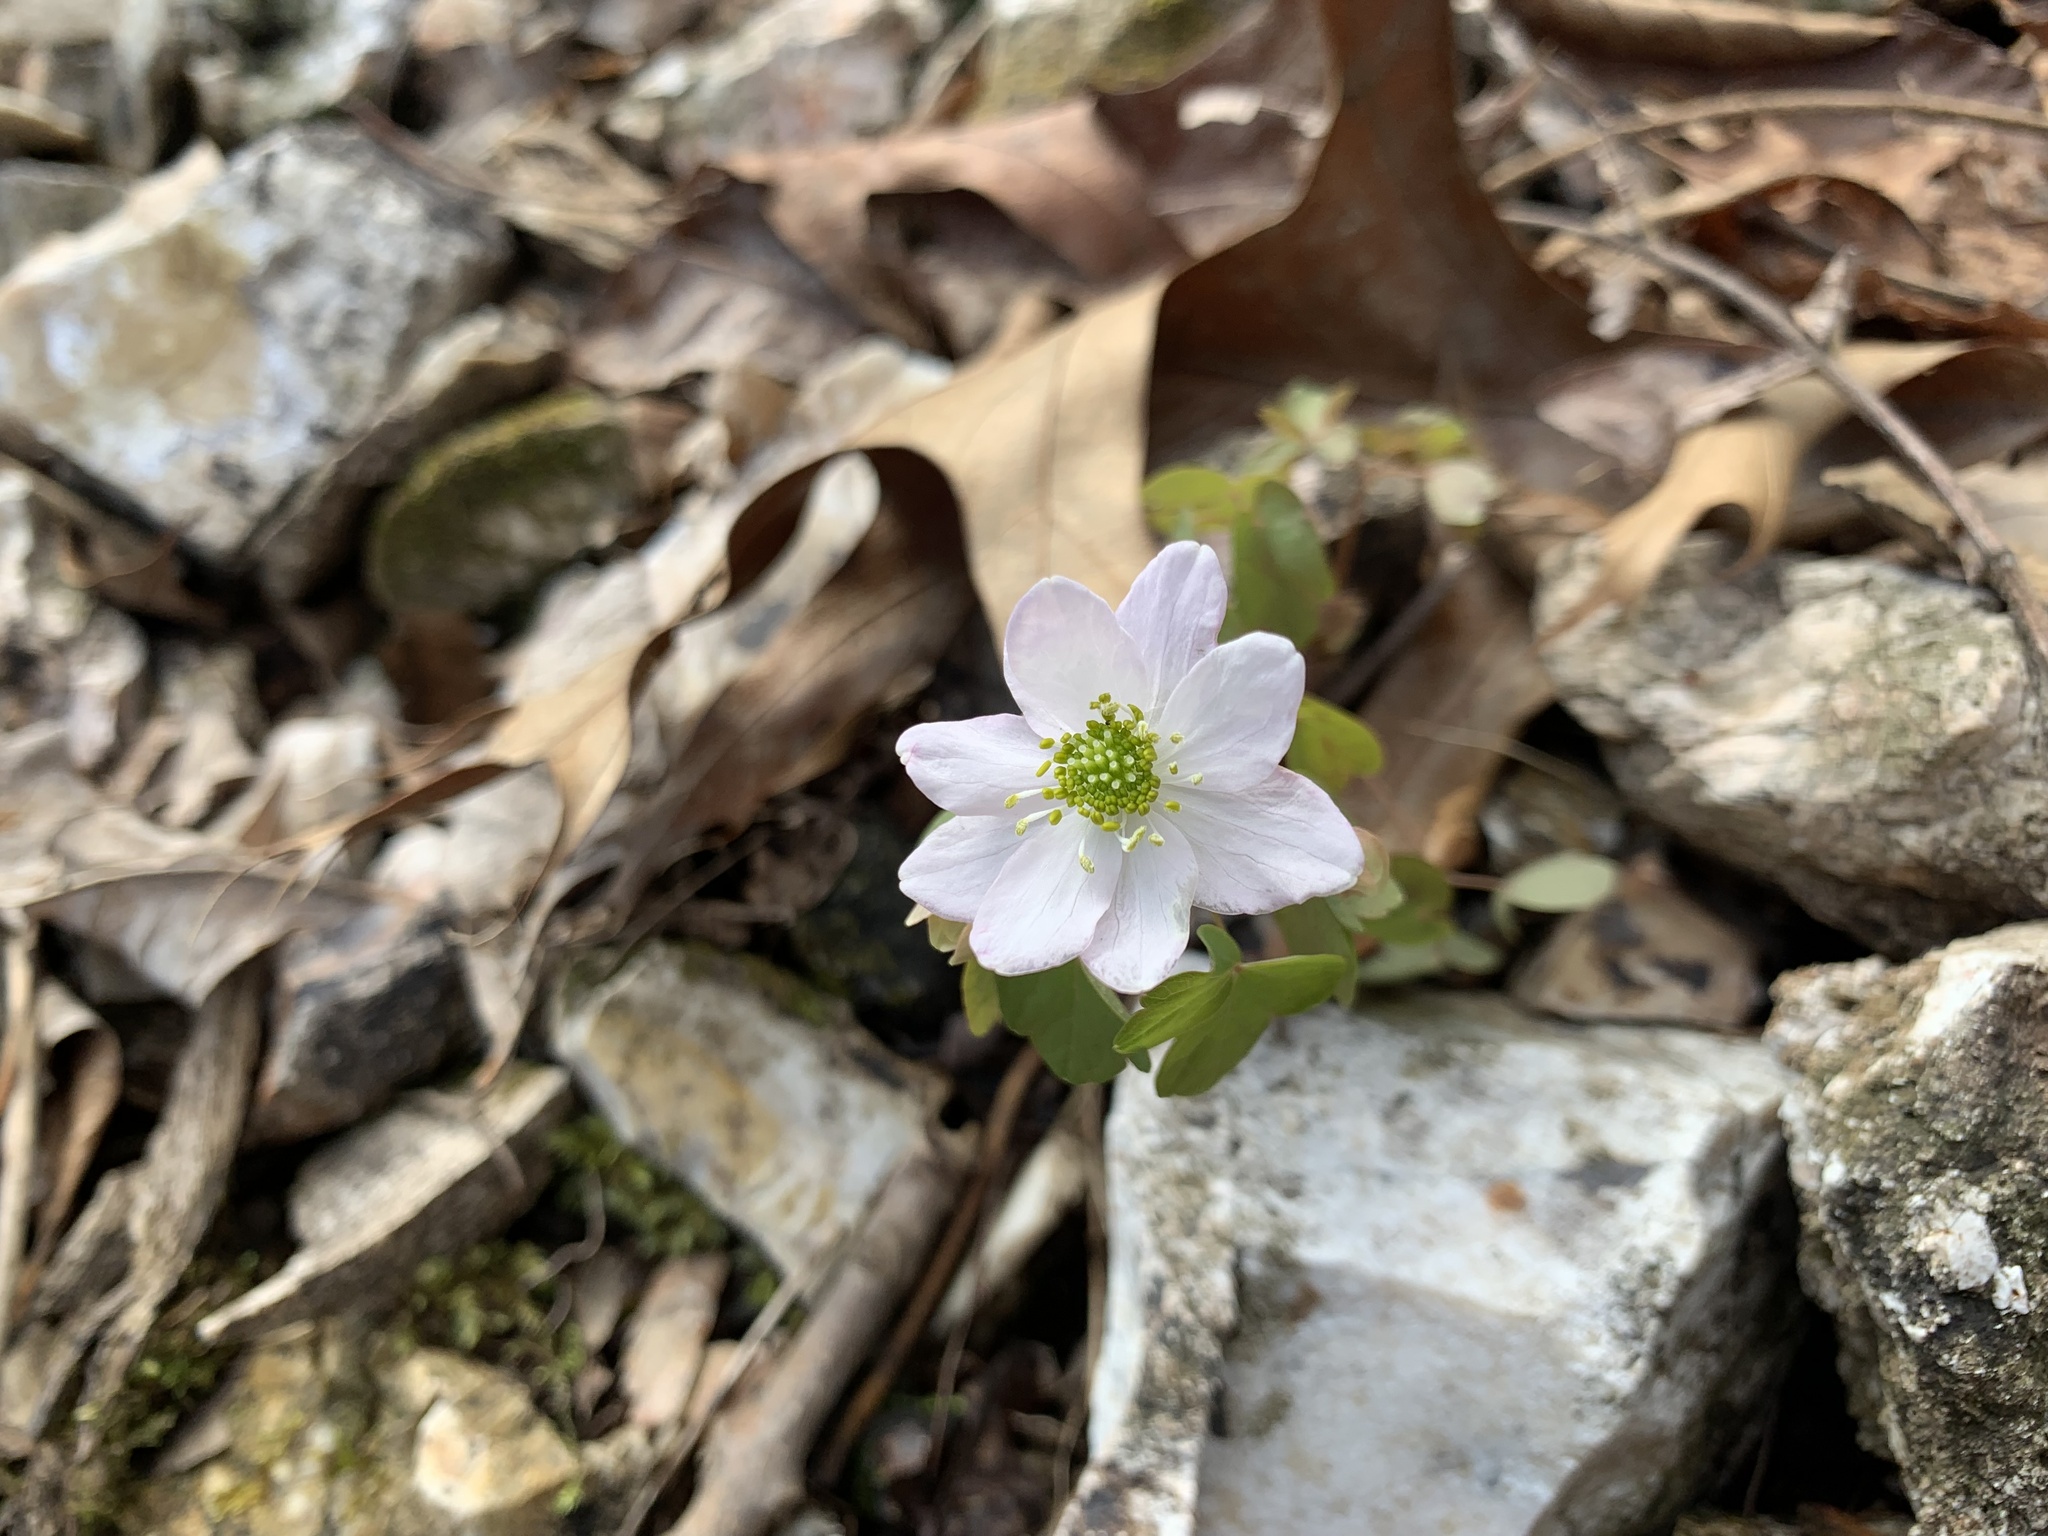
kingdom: Plantae
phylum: Tracheophyta
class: Magnoliopsida
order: Ranunculales
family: Ranunculaceae
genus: Thalictrum
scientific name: Thalictrum thalictroides
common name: Rue-anemone
